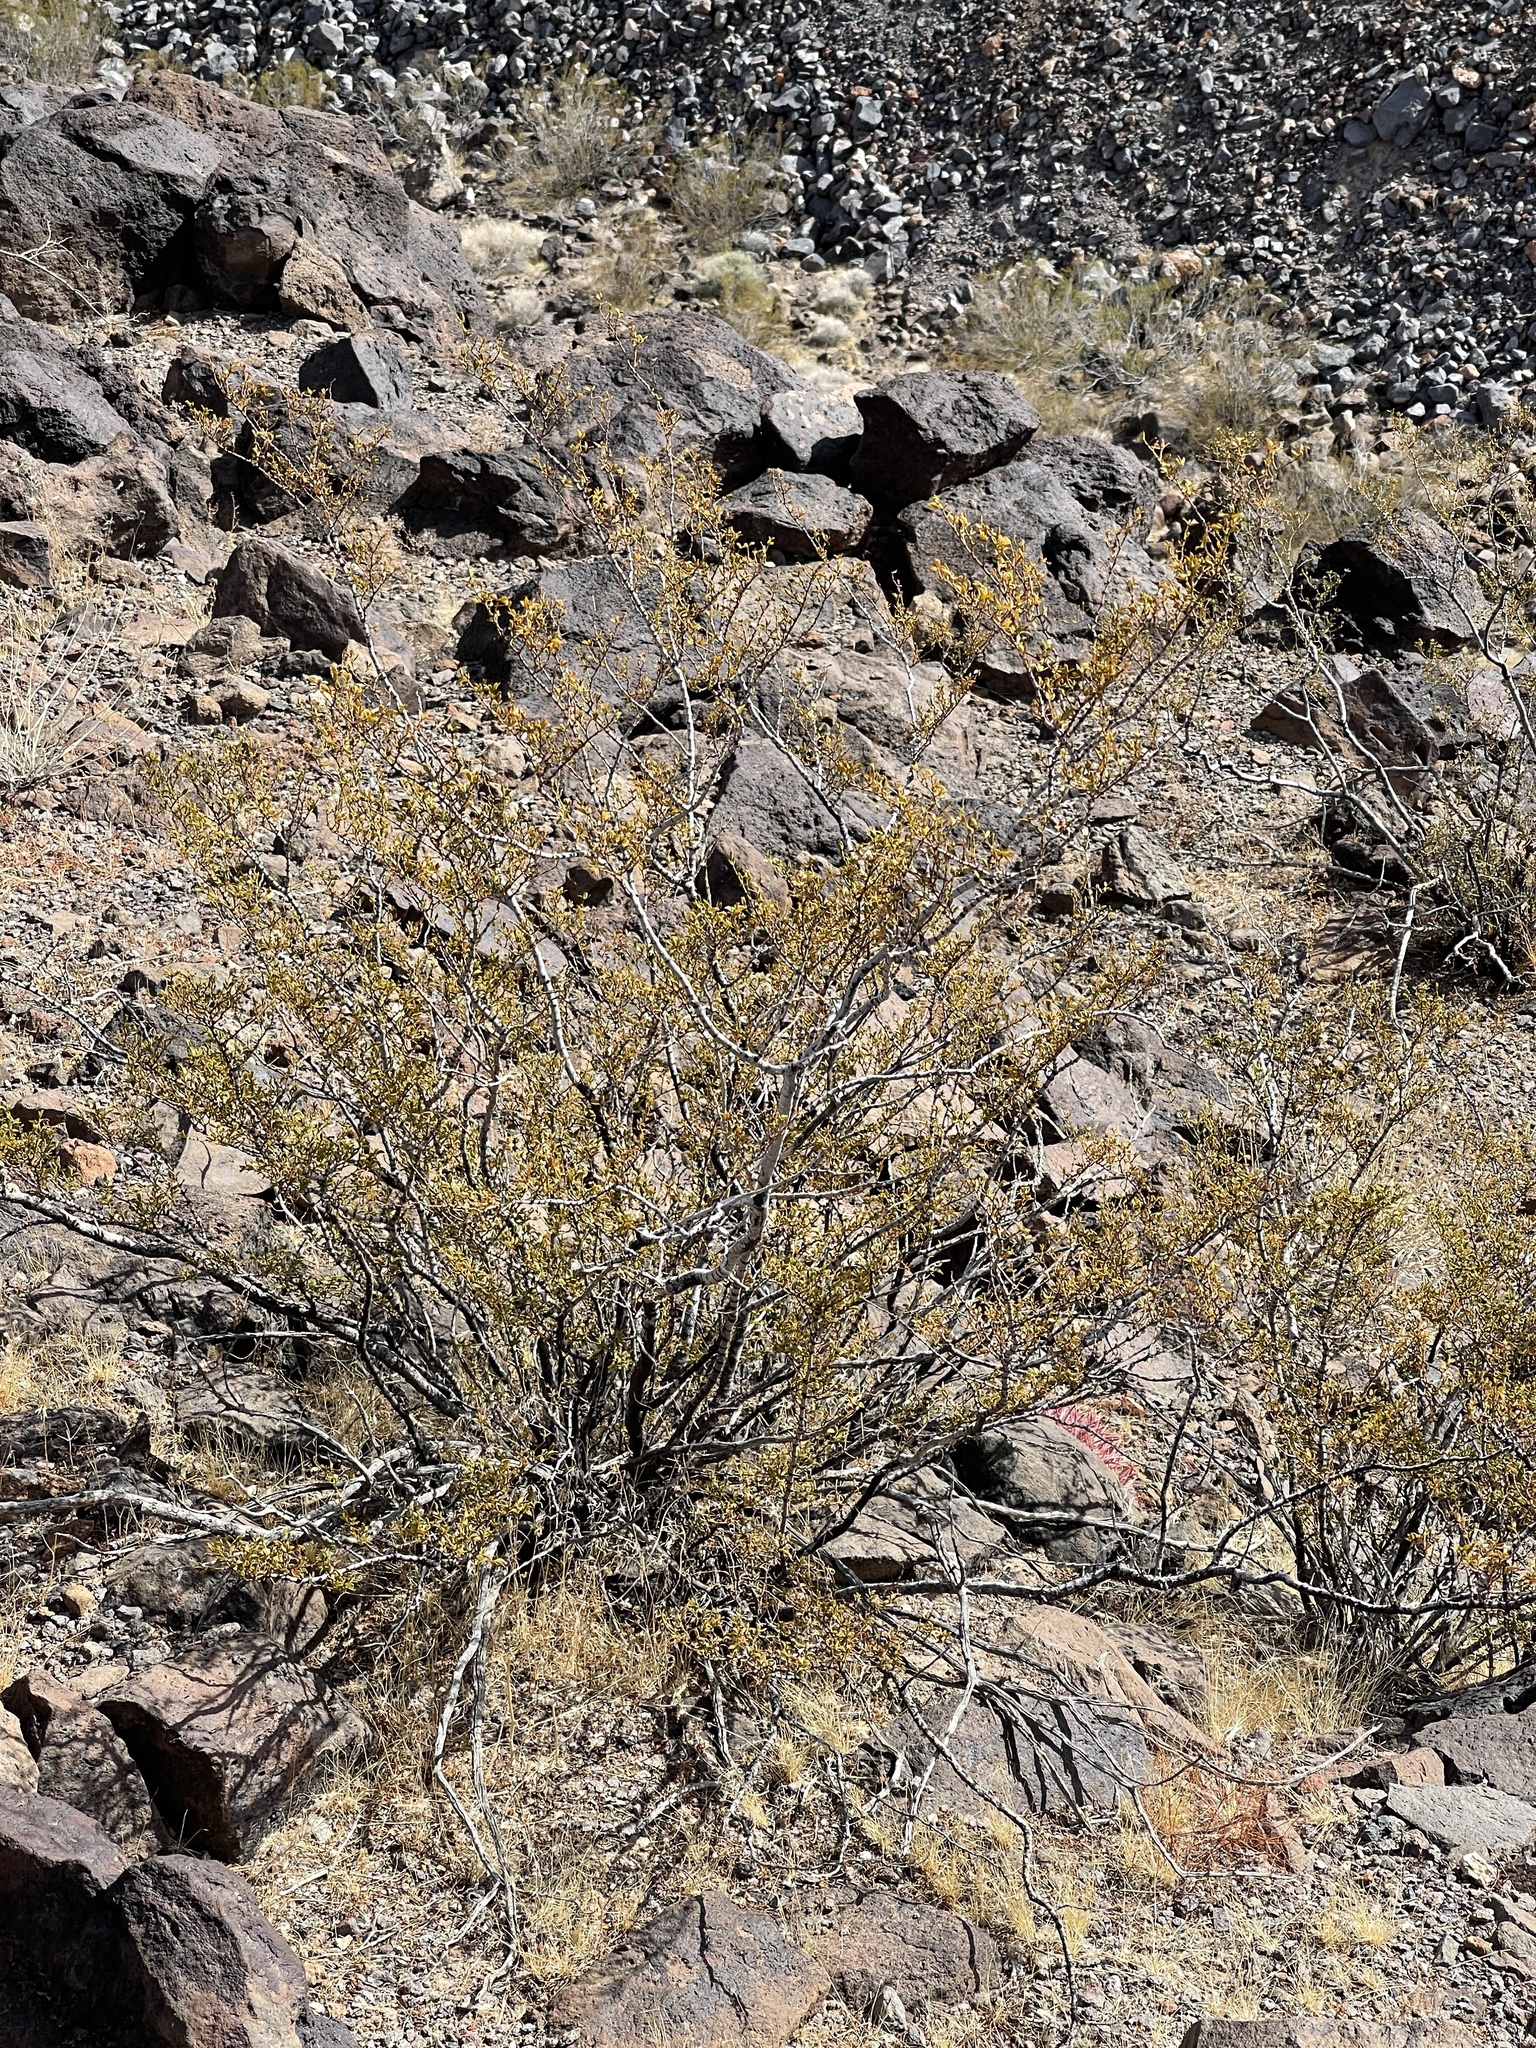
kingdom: Plantae
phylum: Tracheophyta
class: Magnoliopsida
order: Zygophyllales
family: Zygophyllaceae
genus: Larrea
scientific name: Larrea tridentata
